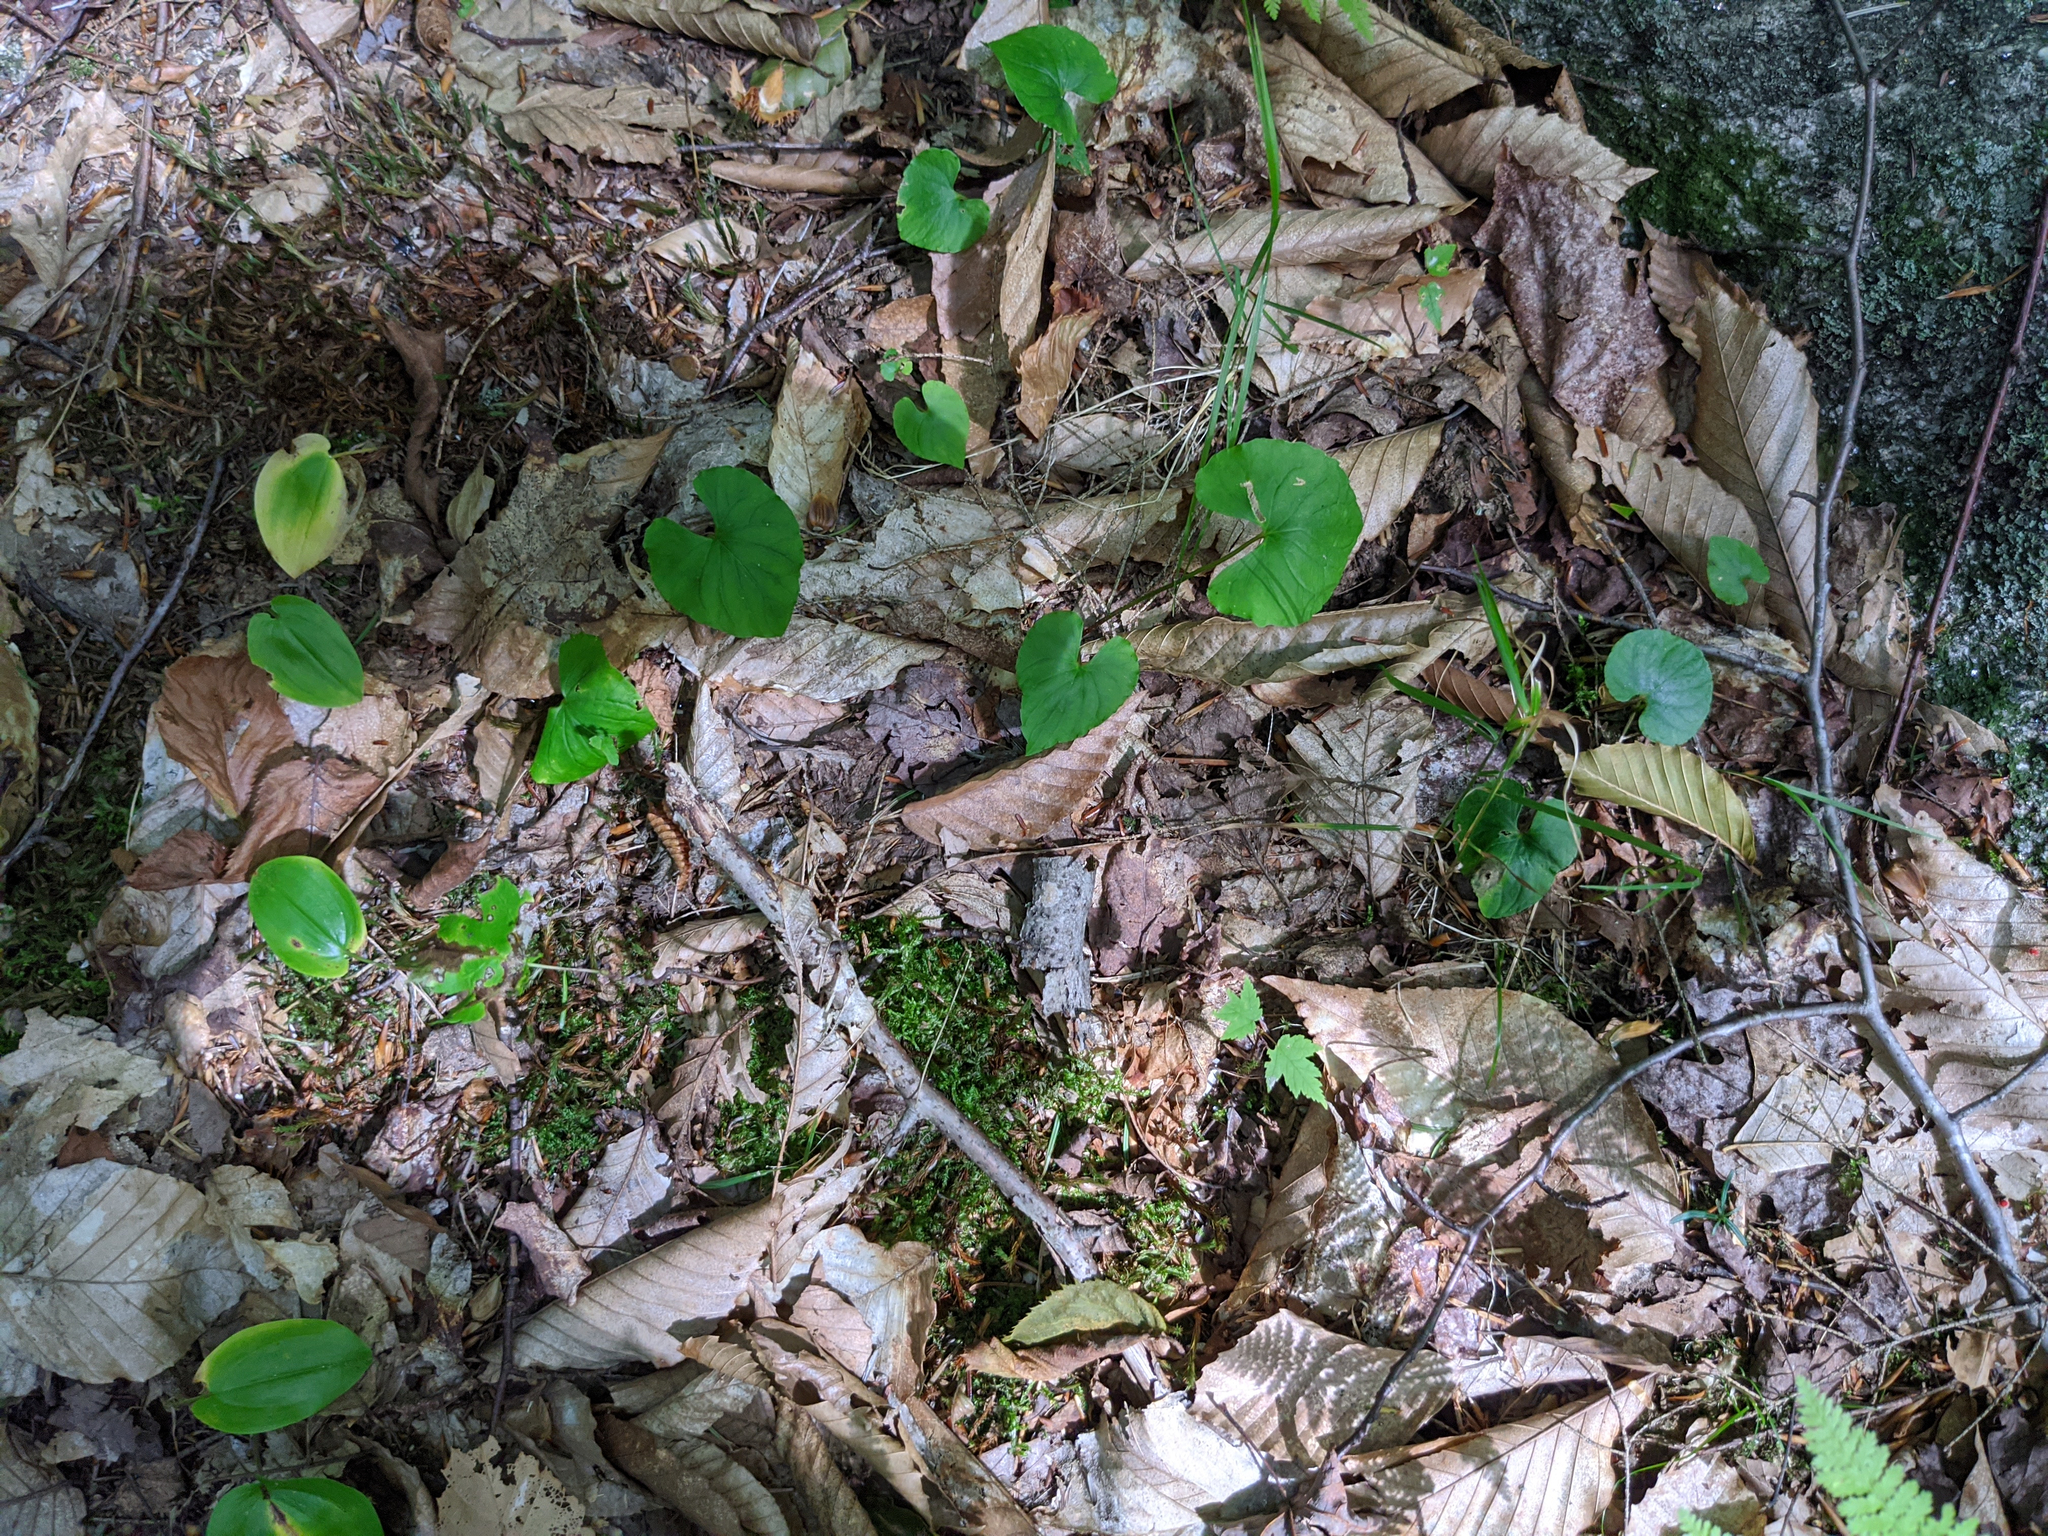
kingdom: Plantae
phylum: Tracheophyta
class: Liliopsida
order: Asparagales
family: Asparagaceae
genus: Maianthemum
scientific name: Maianthemum canadense
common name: False lily-of-the-valley
